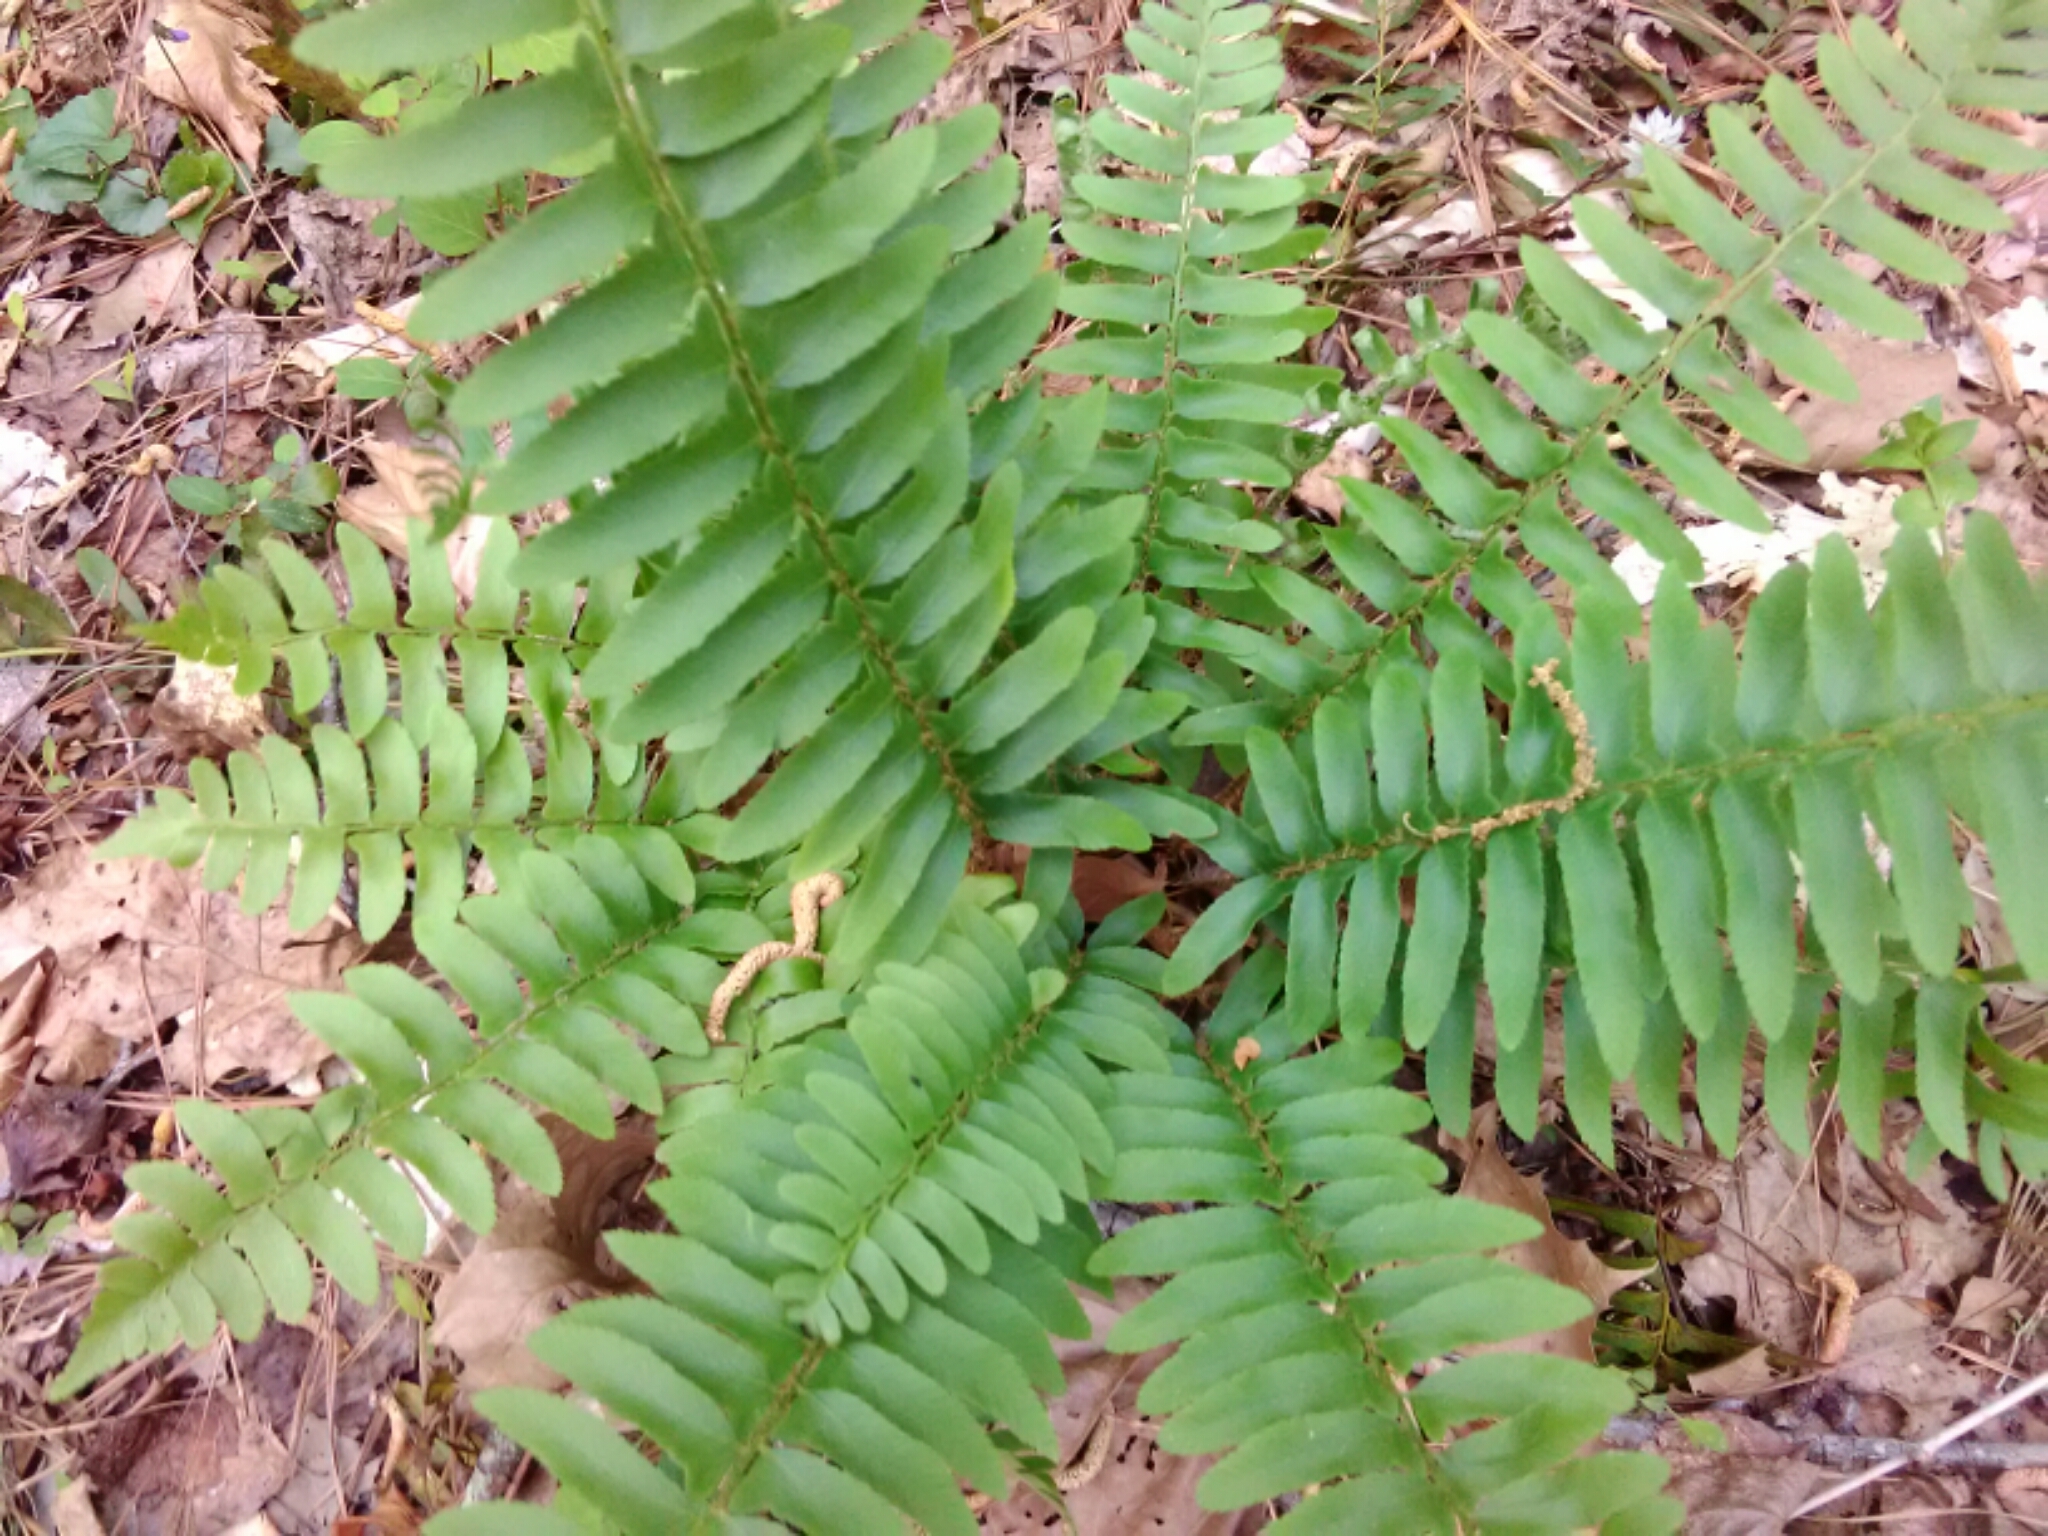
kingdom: Plantae
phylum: Tracheophyta
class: Polypodiopsida
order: Polypodiales
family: Dryopteridaceae
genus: Polystichum
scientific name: Polystichum acrostichoides
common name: Christmas fern
